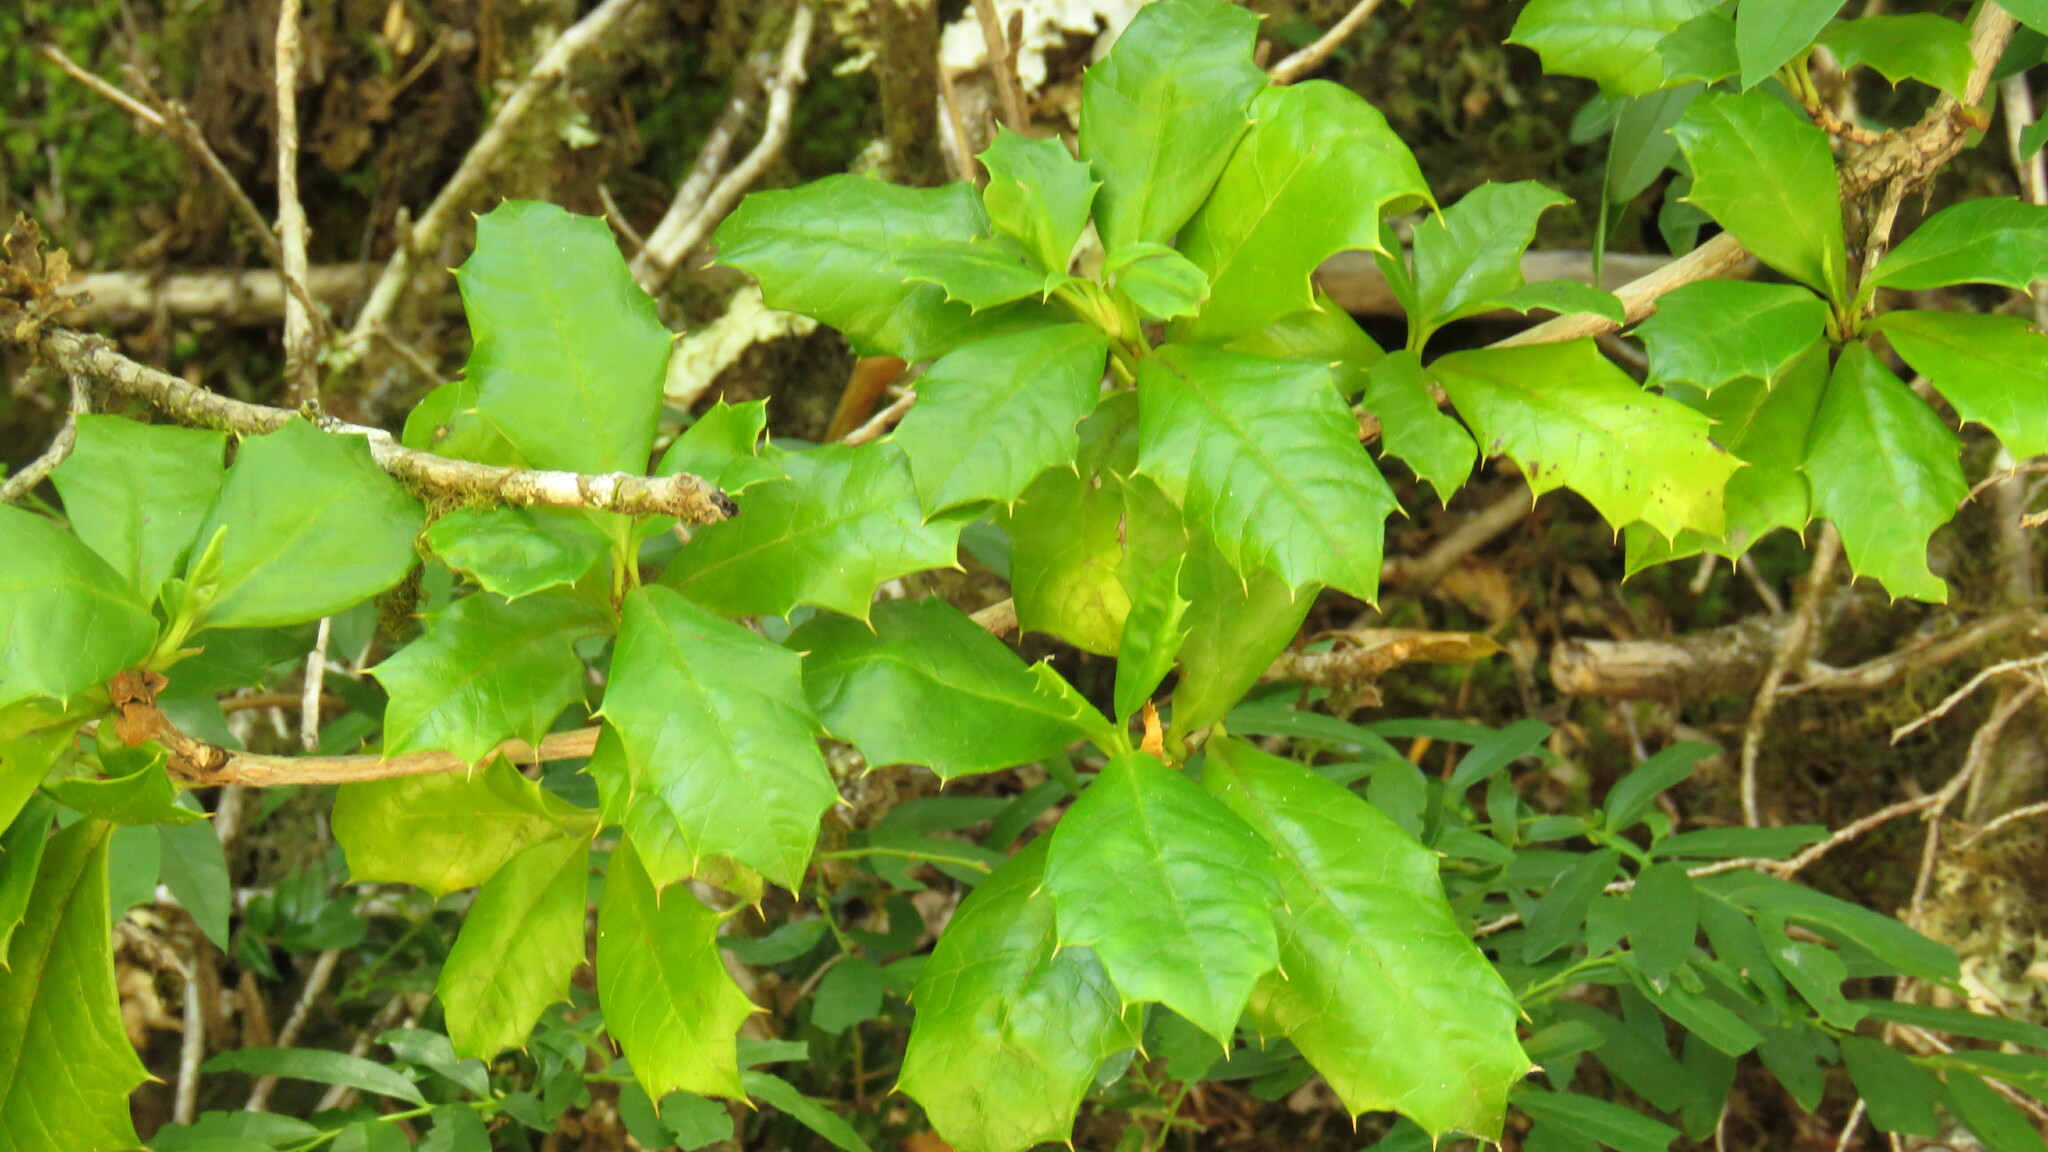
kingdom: Plantae
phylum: Tracheophyta
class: Magnoliopsida
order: Bruniales
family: Columelliaceae
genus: Desfontainia
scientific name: Desfontainia fulgens
